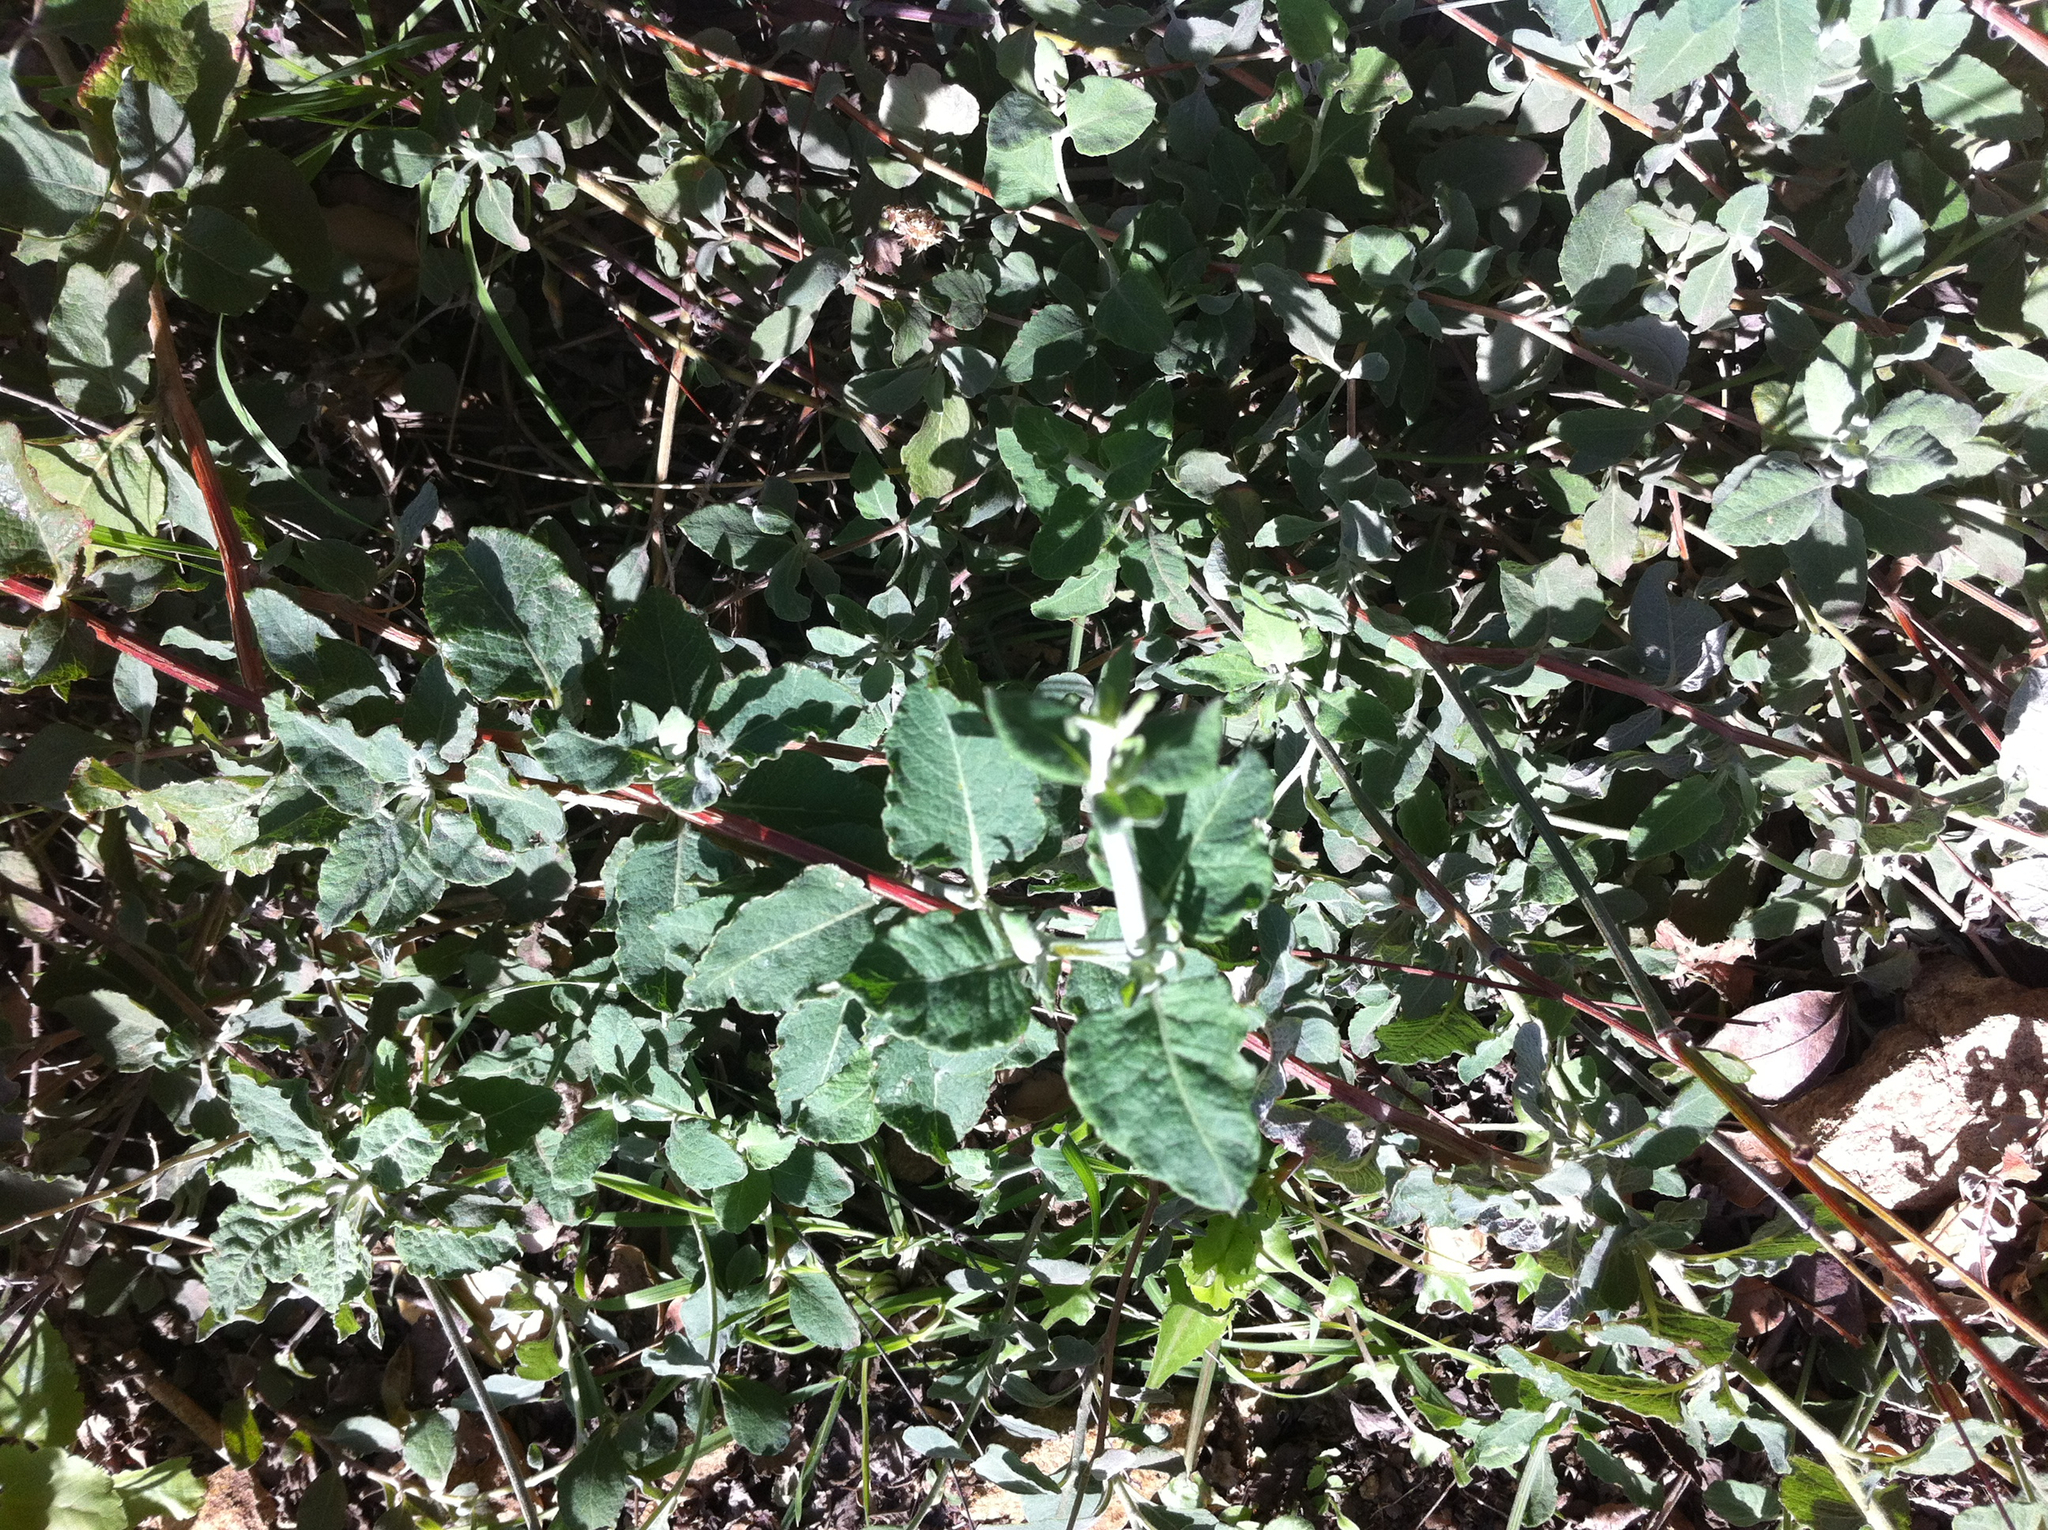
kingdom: Plantae
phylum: Tracheophyta
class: Magnoliopsida
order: Caryophyllales
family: Polygonaceae
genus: Eriogonum
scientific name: Eriogonum cinereum
